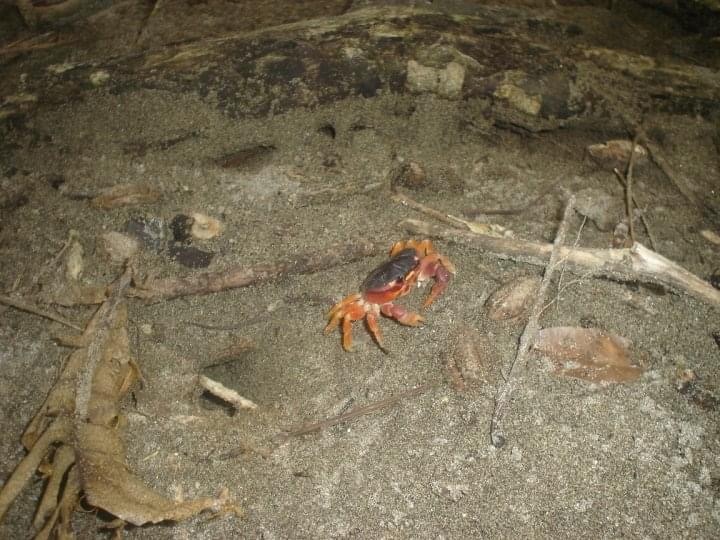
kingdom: Animalia
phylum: Arthropoda
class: Malacostraca
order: Decapoda
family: Gecarcinidae
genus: Gecarcinus
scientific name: Gecarcinus lateralis
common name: Bermuda land crab
